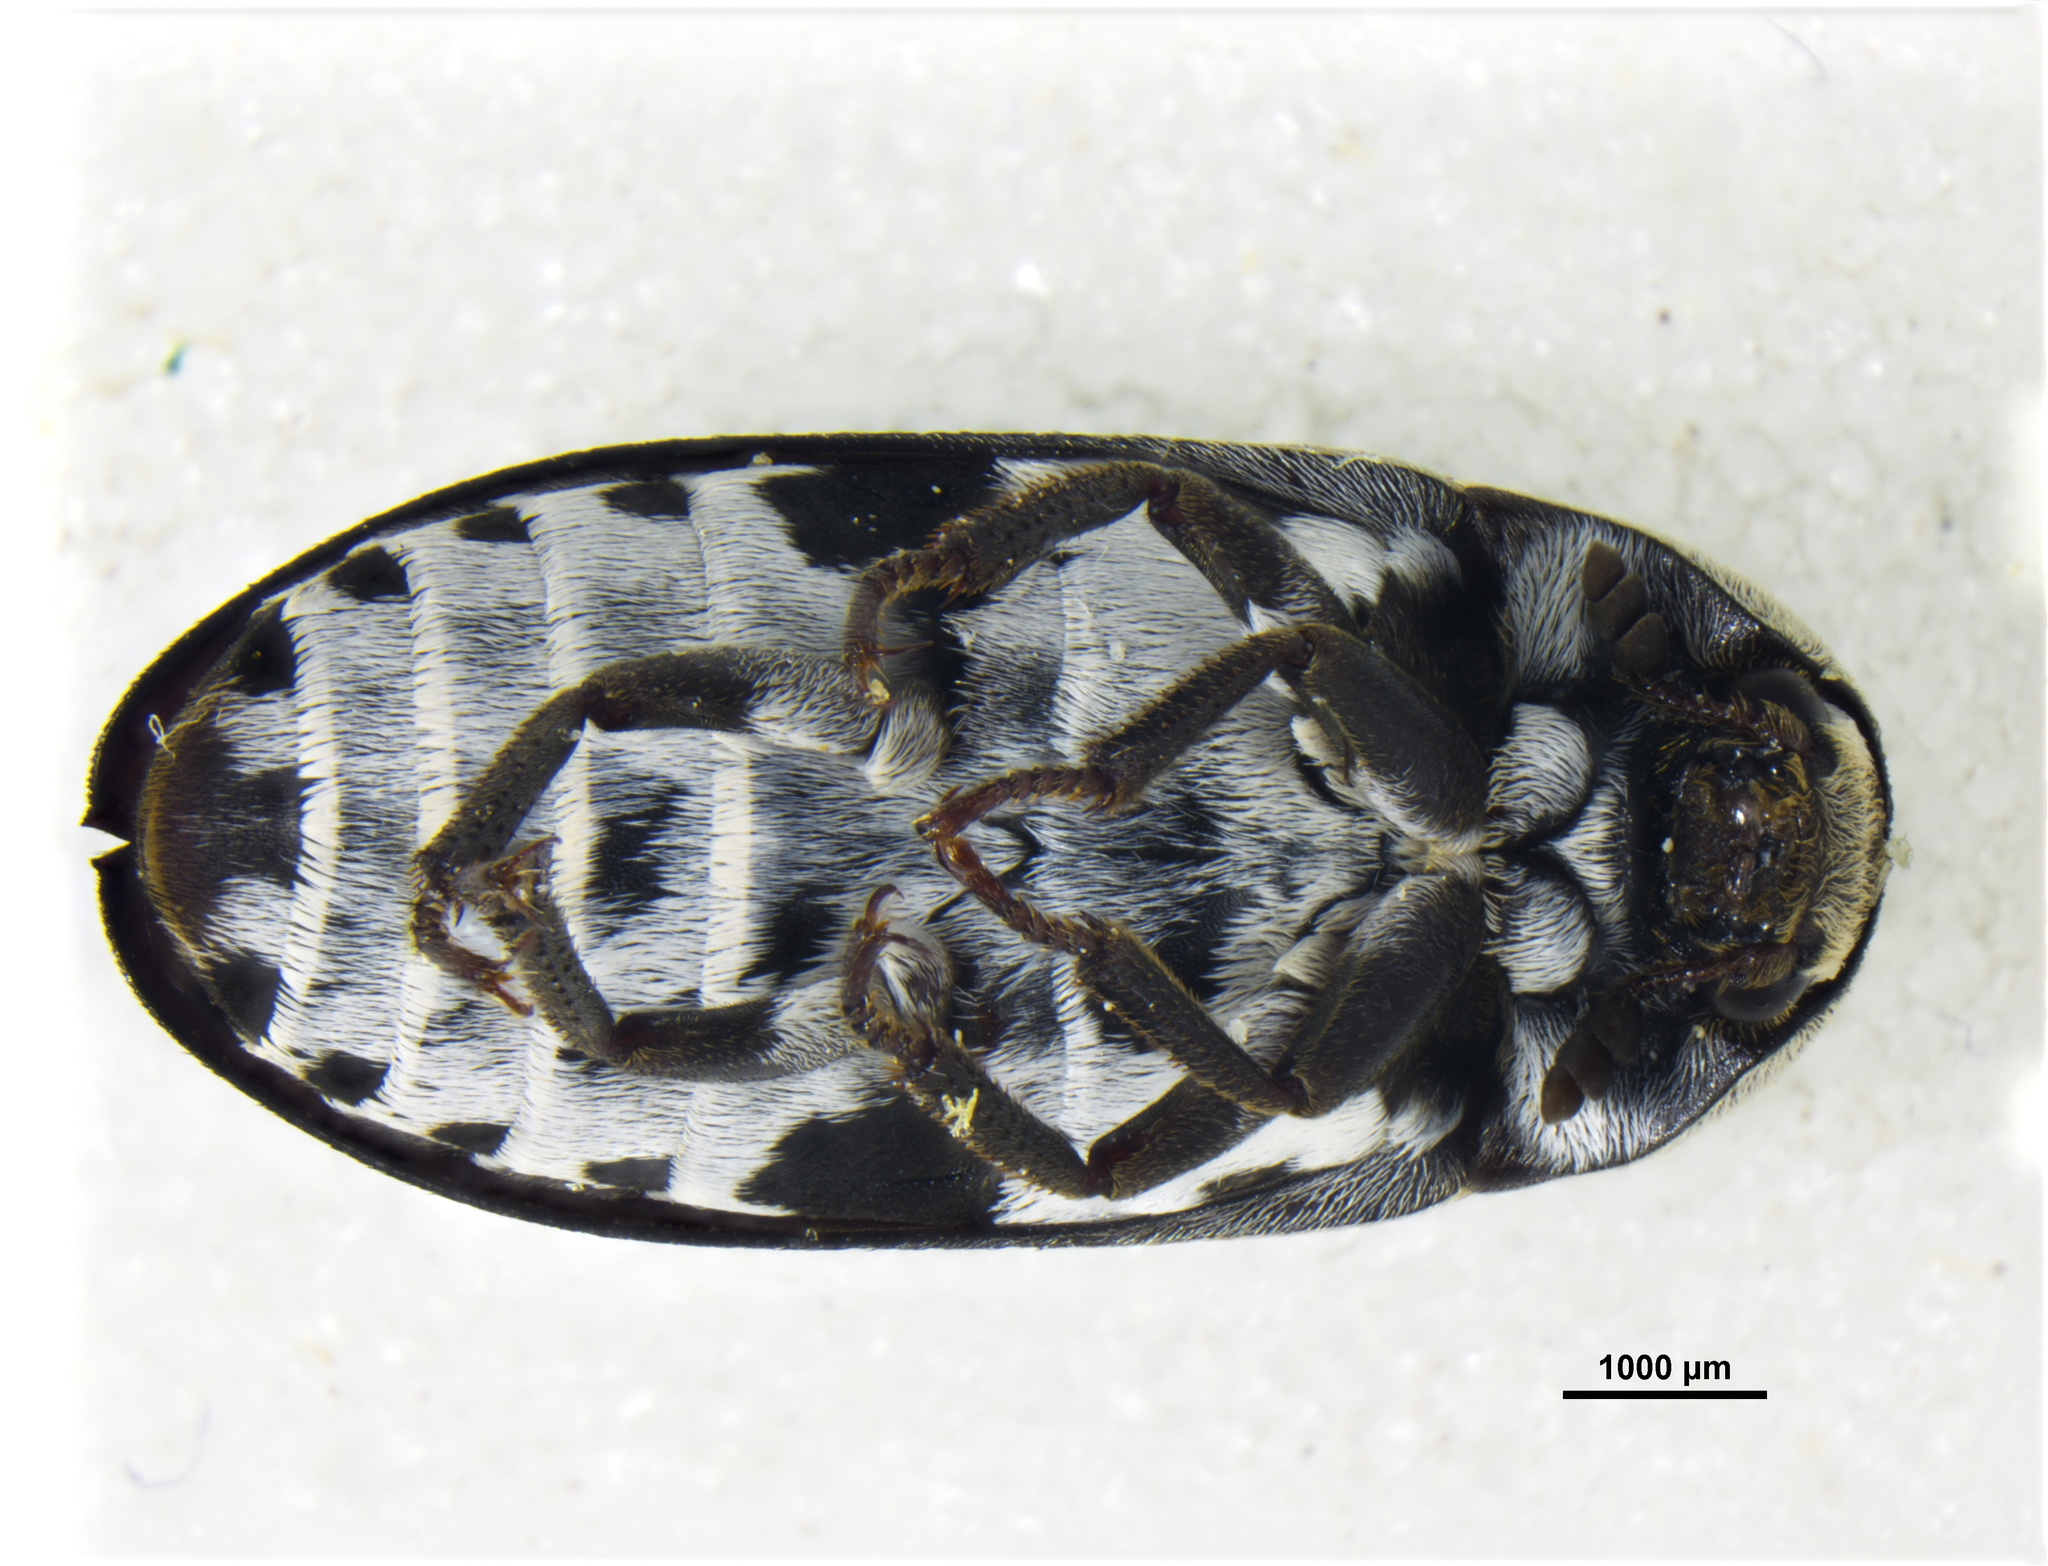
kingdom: Animalia
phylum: Arthropoda
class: Insecta
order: Coleoptera
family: Dermestidae
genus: Dermestes
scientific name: Dermestes maculatus
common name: Hide beetle
